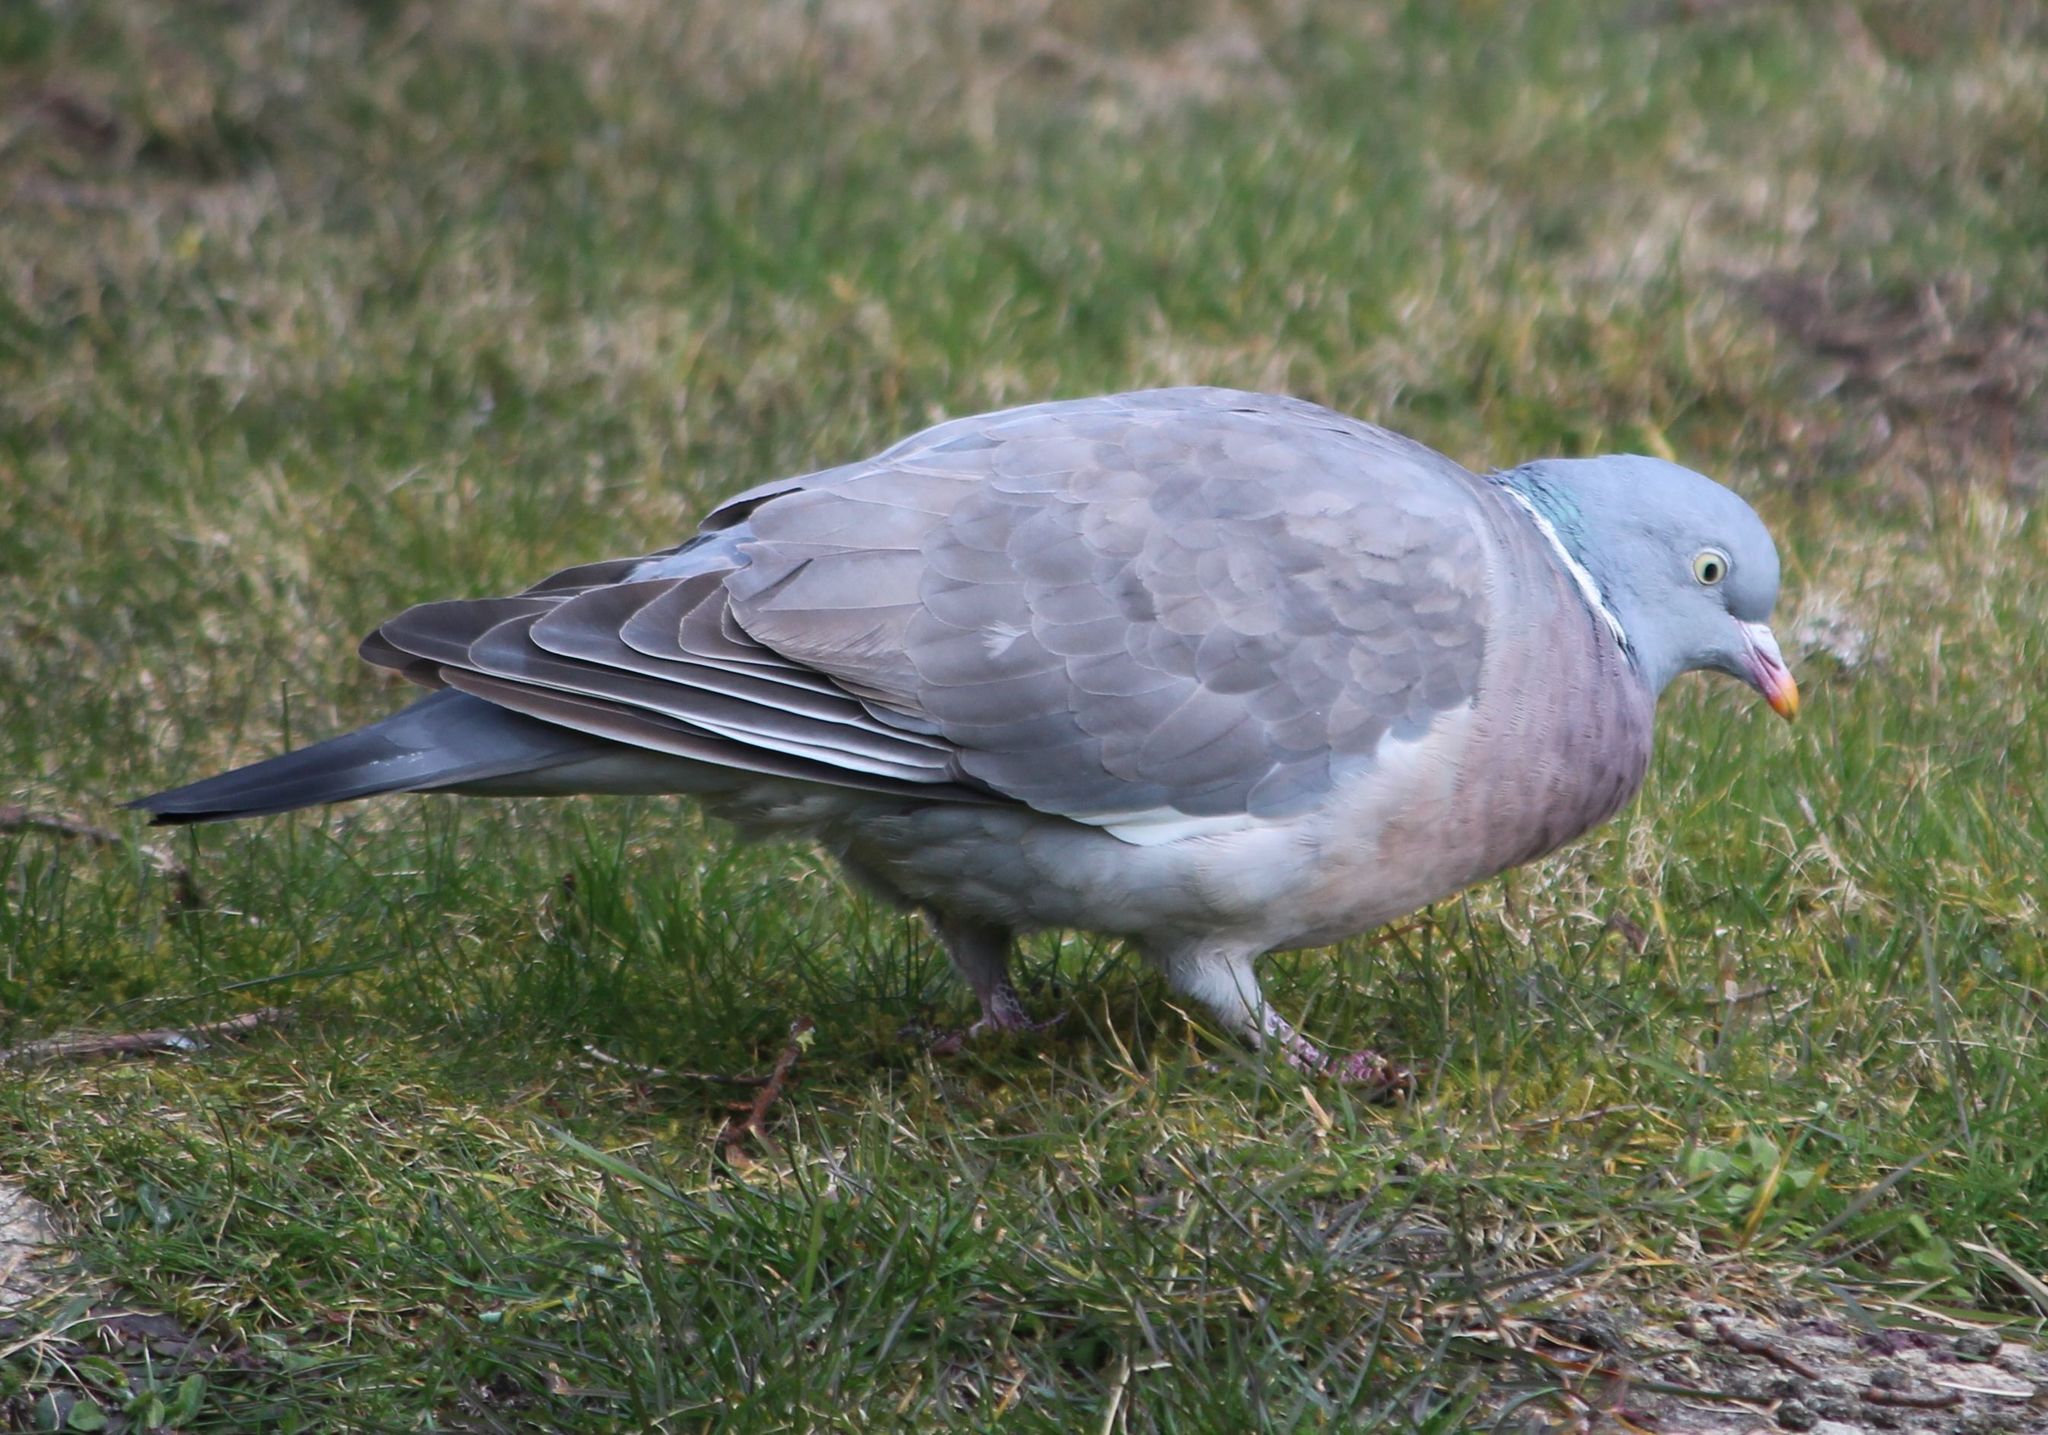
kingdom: Animalia
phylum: Chordata
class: Aves
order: Columbiformes
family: Columbidae
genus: Columba
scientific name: Columba palumbus
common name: Common wood pigeon
